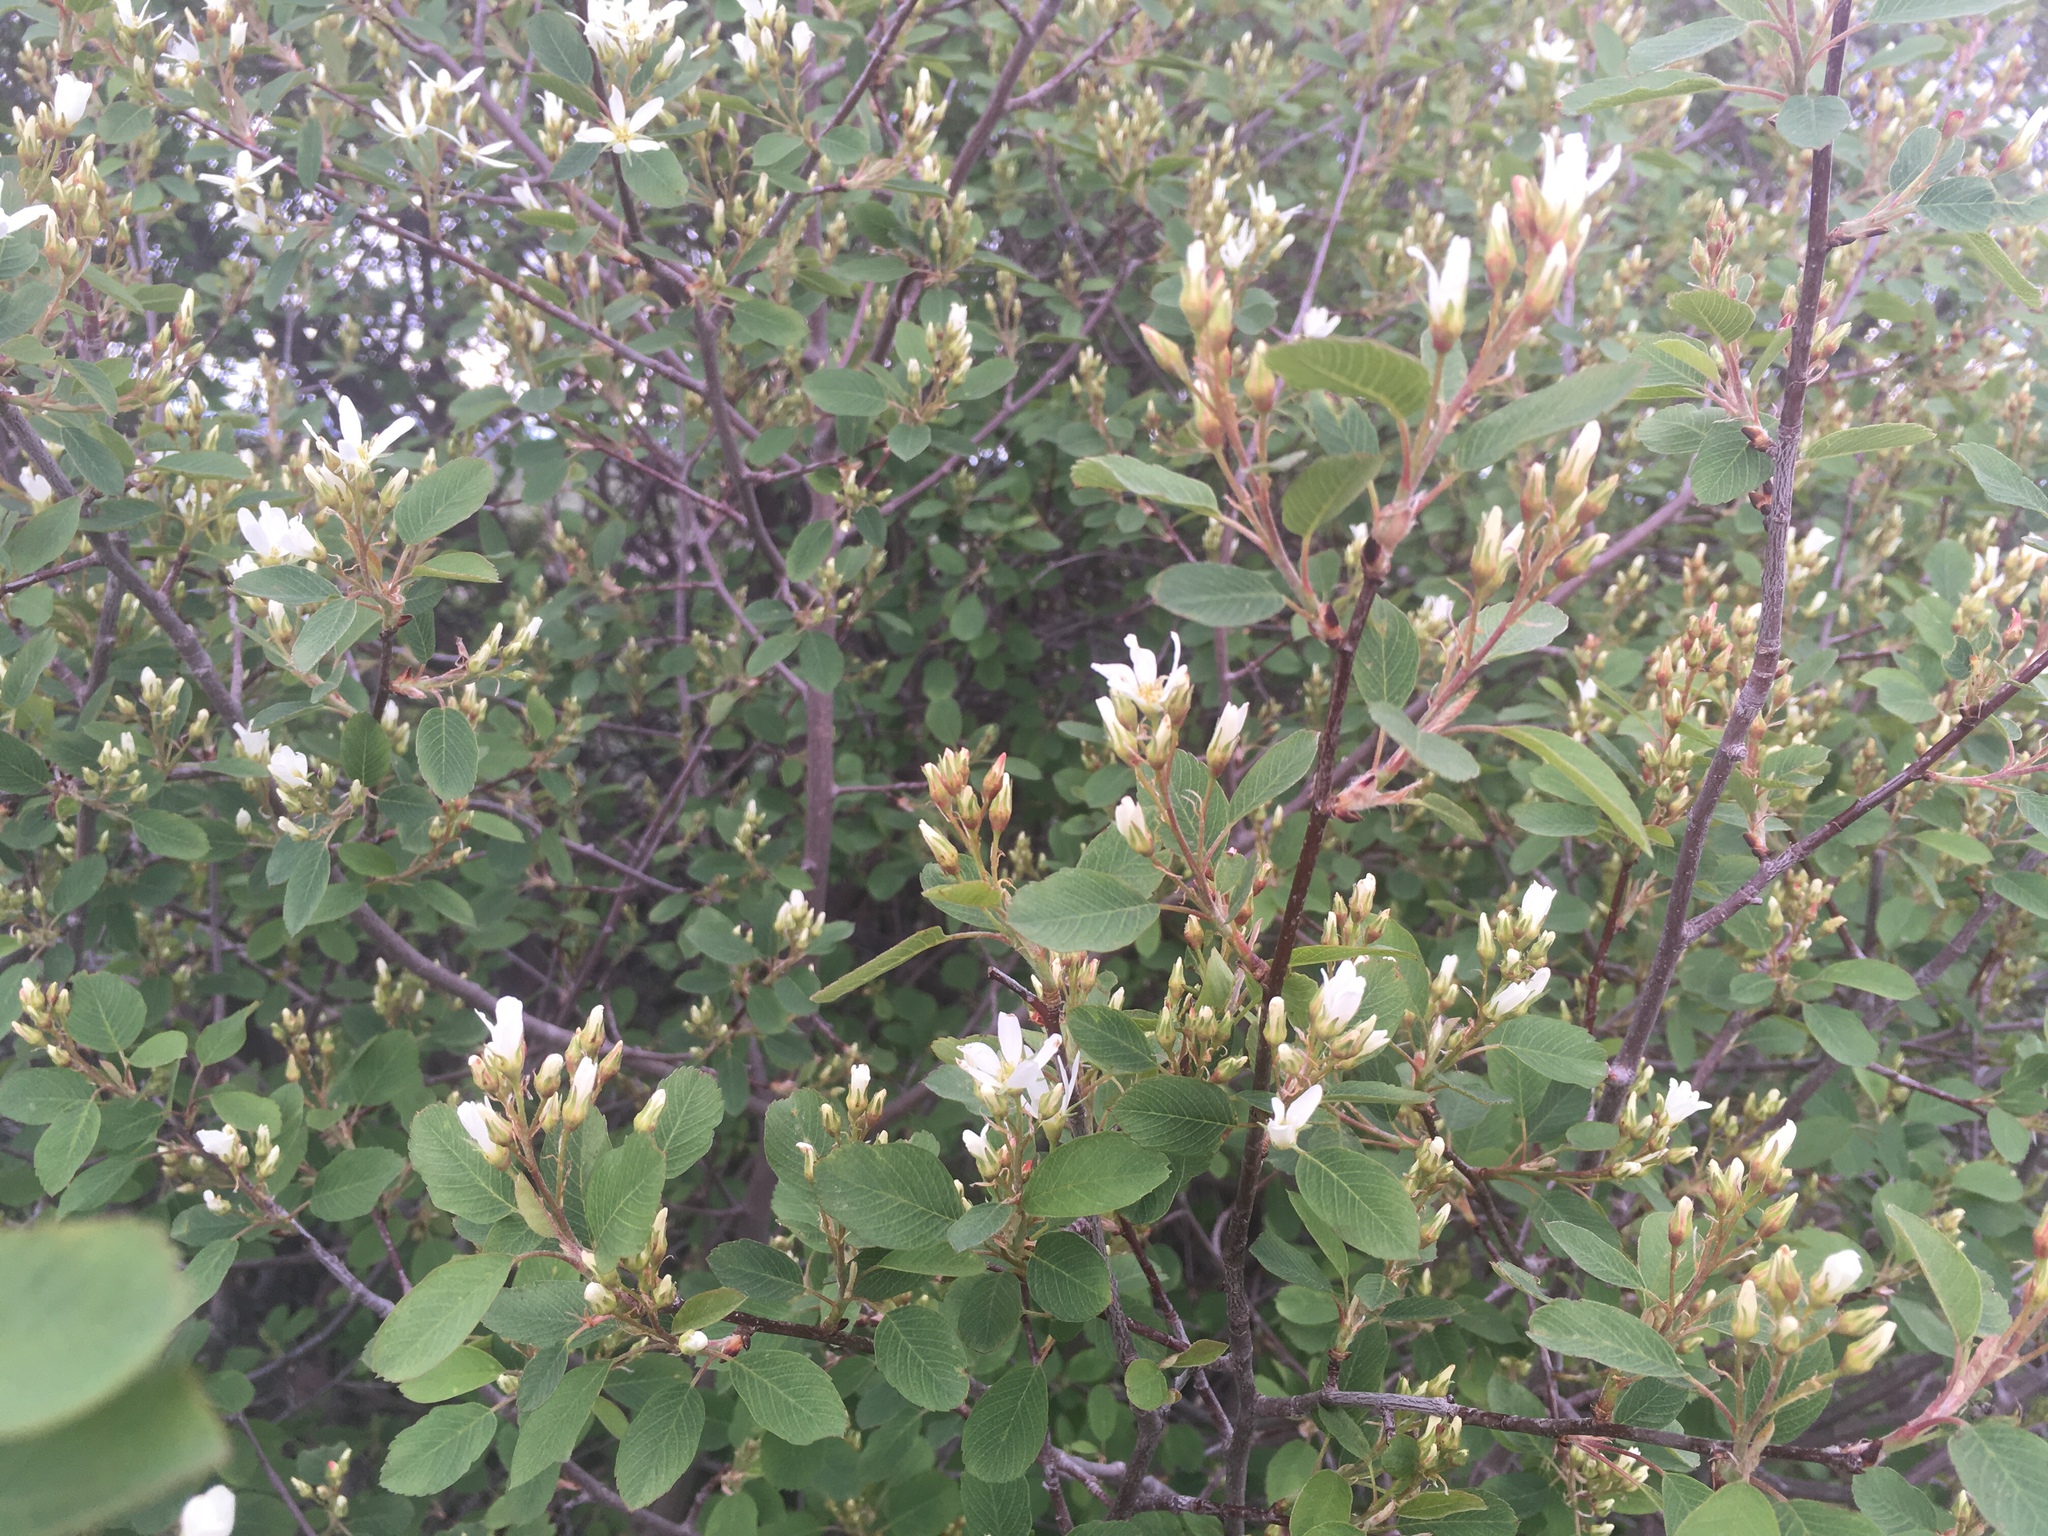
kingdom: Plantae
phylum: Tracheophyta
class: Magnoliopsida
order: Rosales
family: Rosaceae
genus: Amelanchier
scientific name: Amelanchier alnifolia
